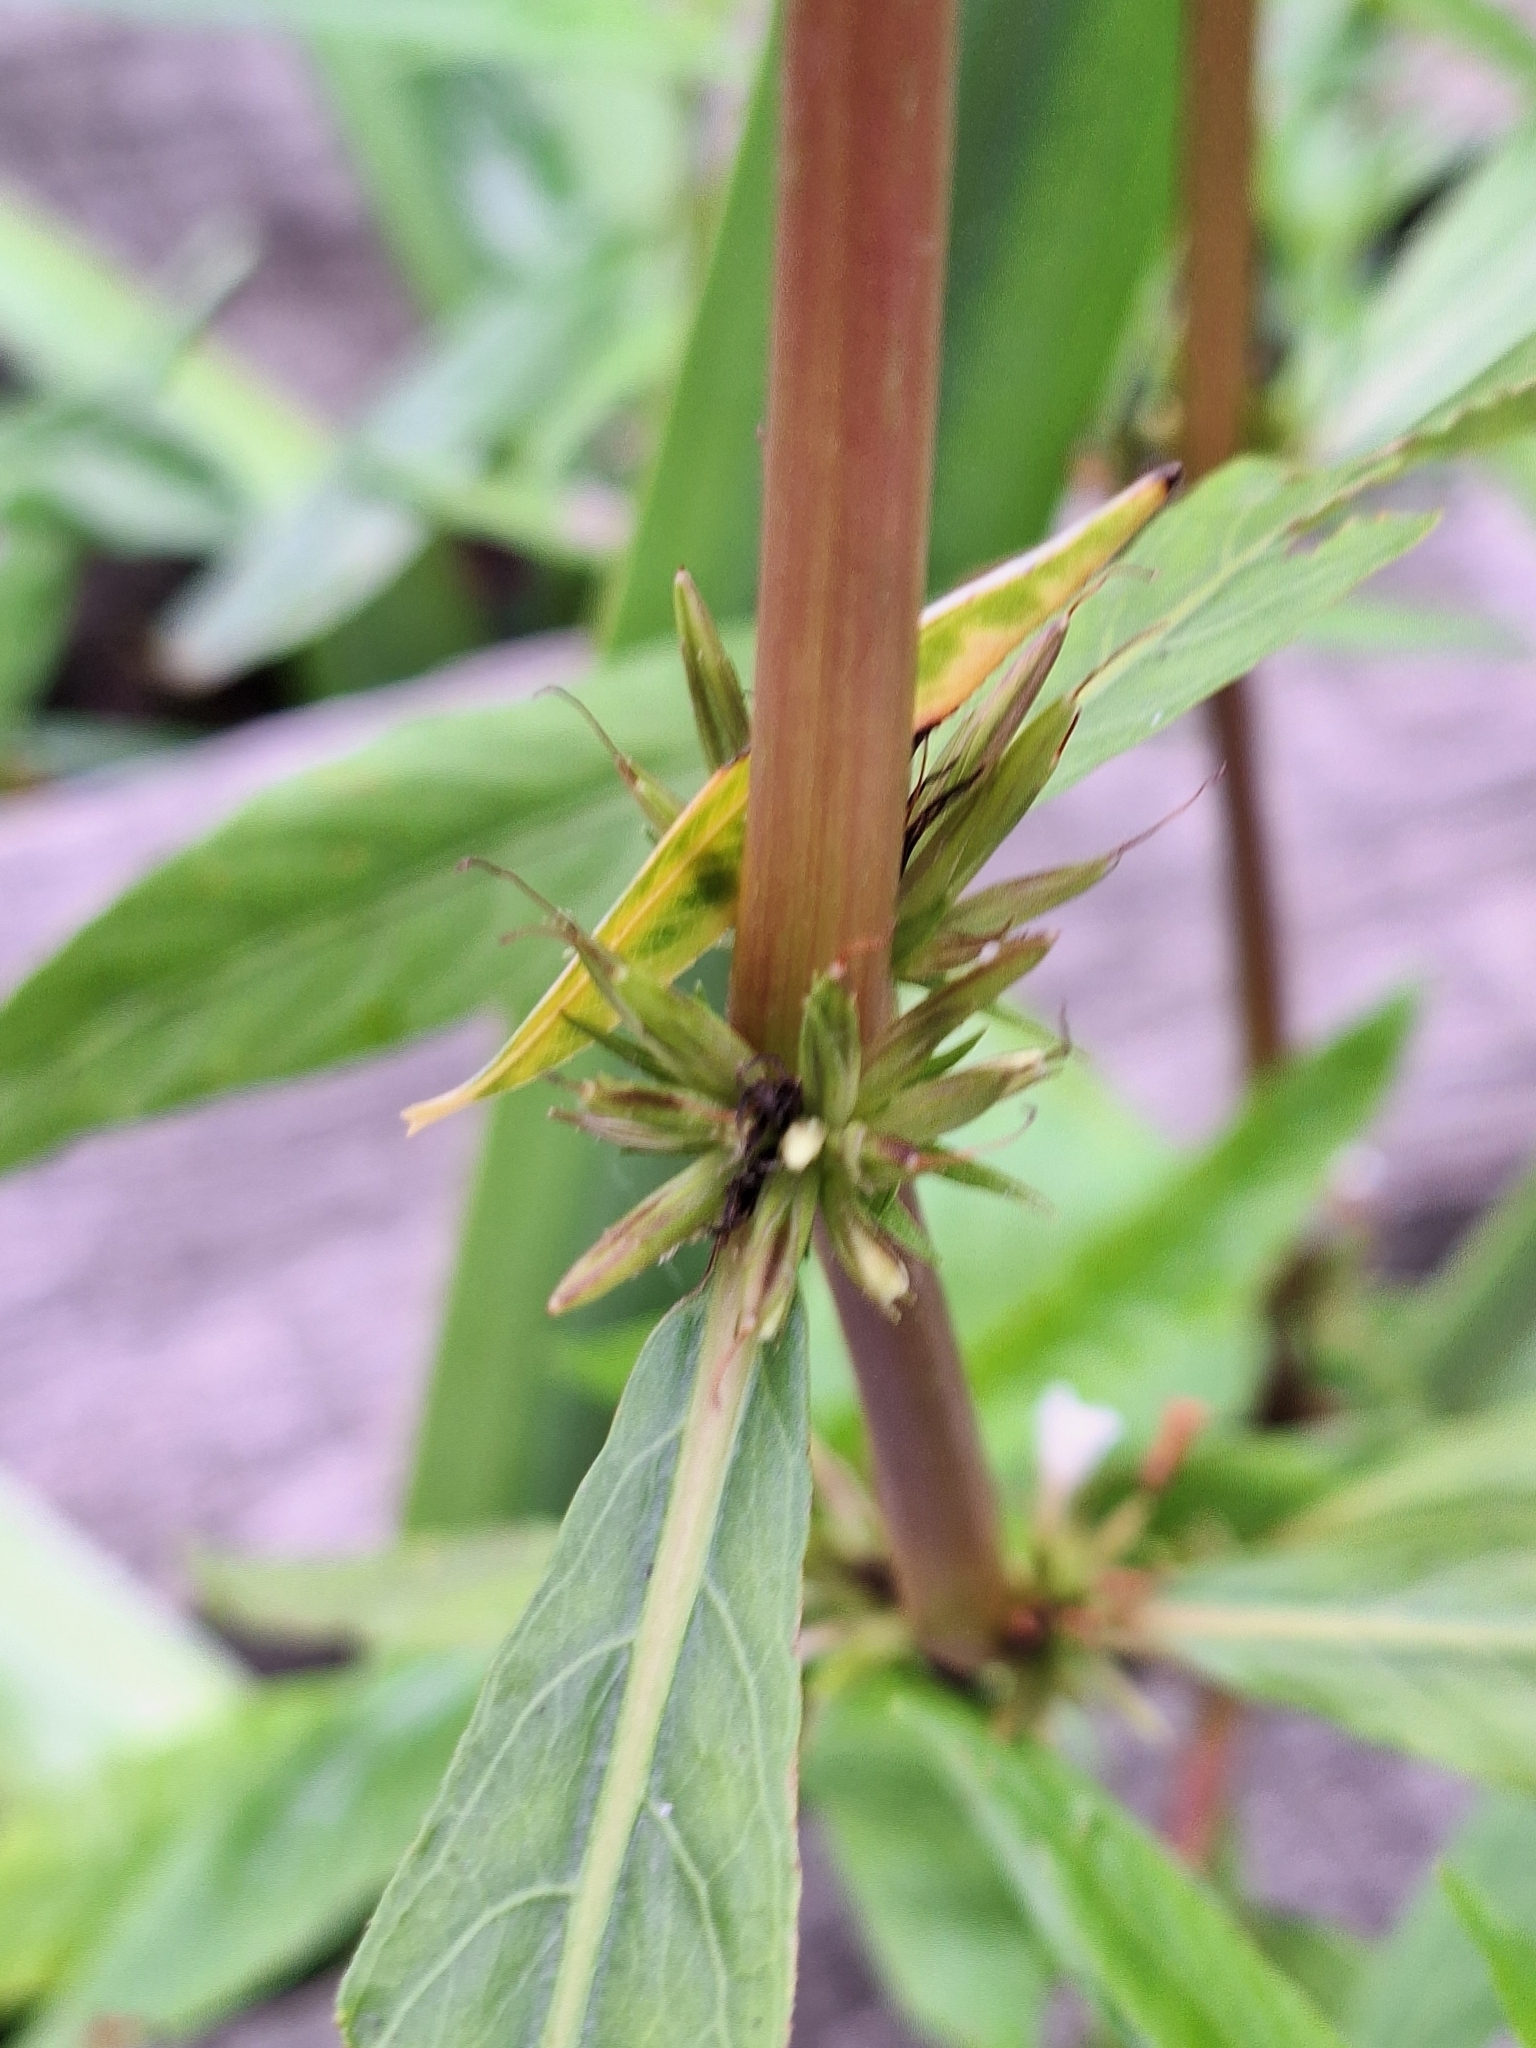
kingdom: Plantae
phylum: Tracheophyta
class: Magnoliopsida
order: Lamiales
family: Acanthaceae
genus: Hygrophila
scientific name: Hygrophila costata
